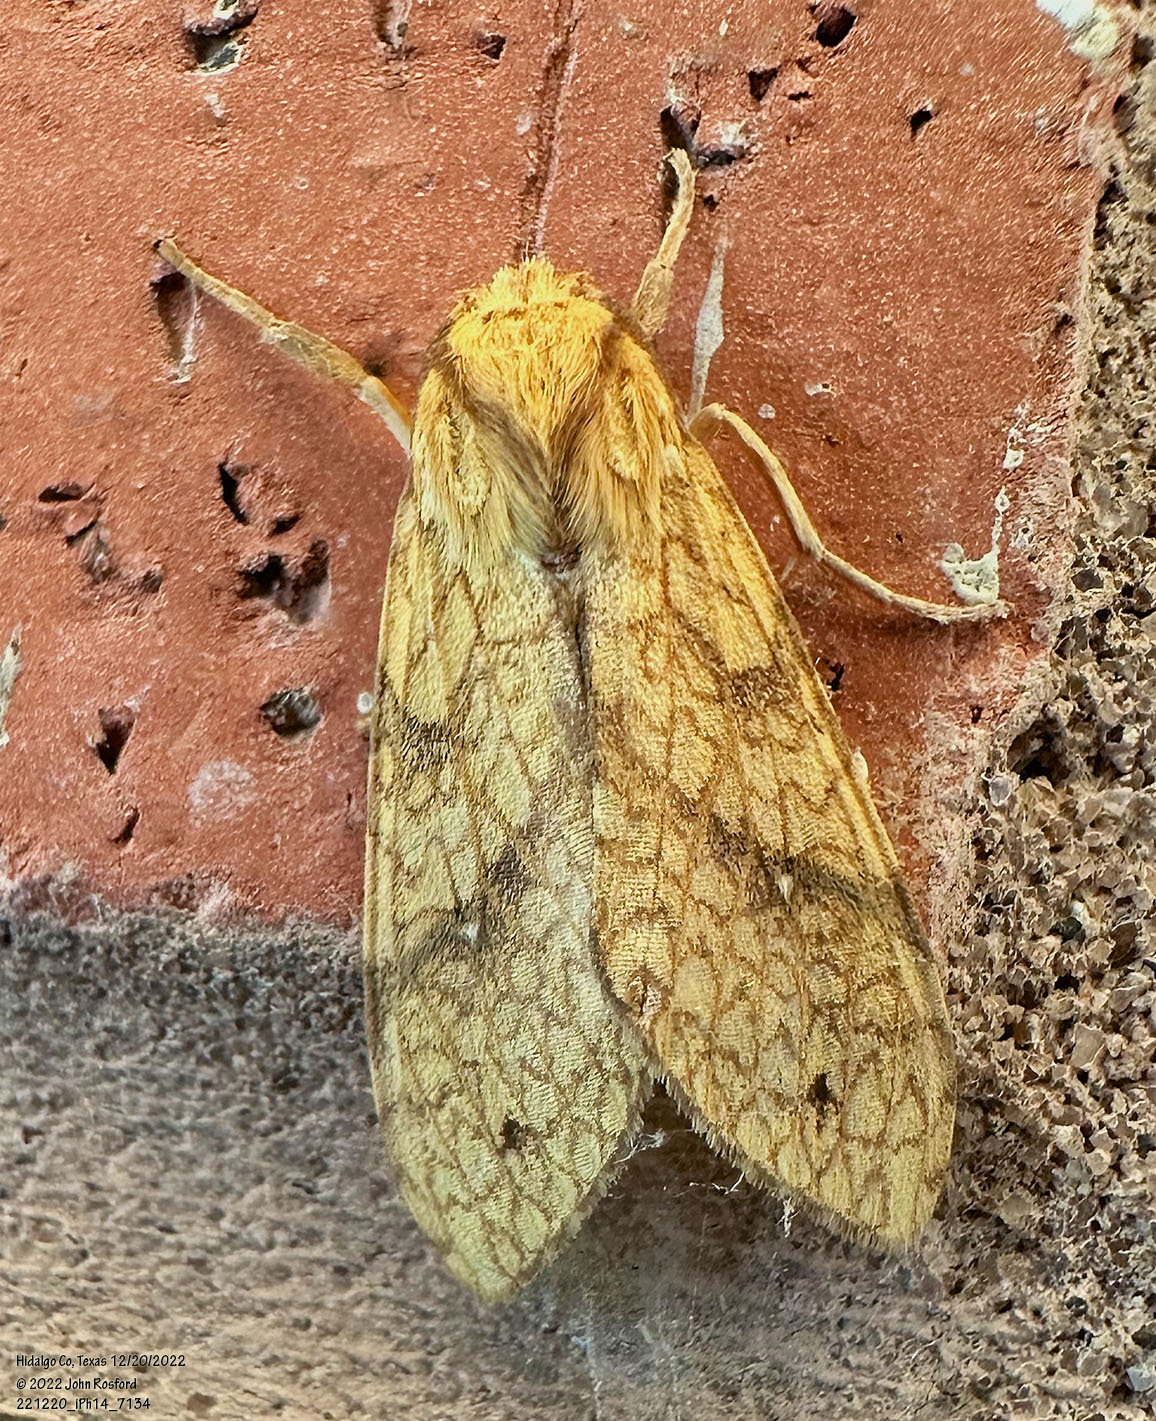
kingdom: Animalia
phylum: Arthropoda
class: Insecta
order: Lepidoptera
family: Erebidae
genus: Lophocampa
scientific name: Lophocampa annulosa
